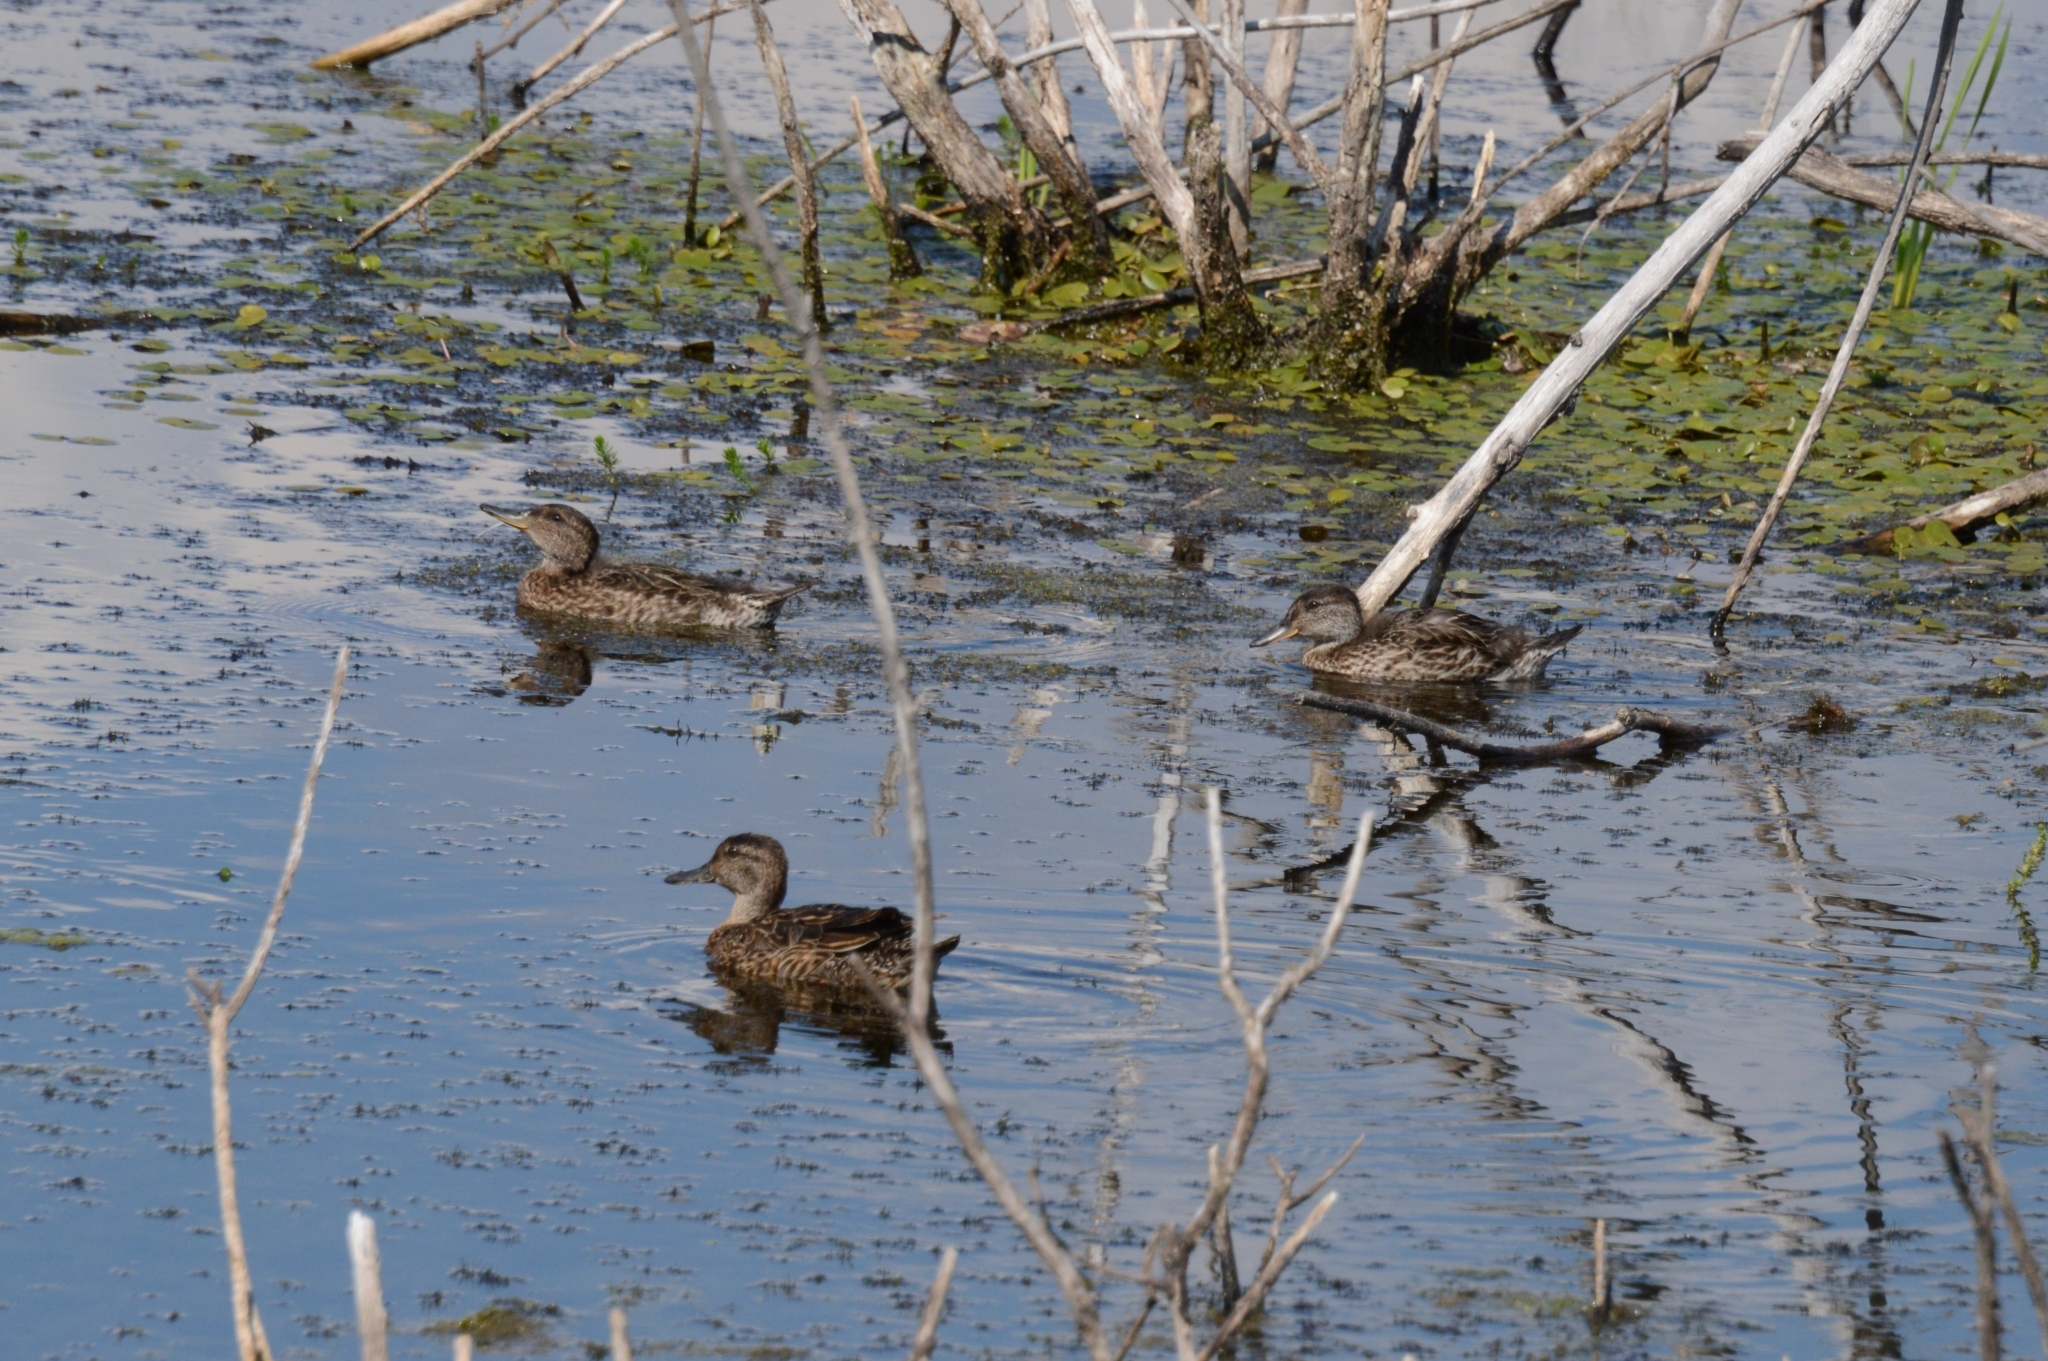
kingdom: Animalia
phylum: Chordata
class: Aves
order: Anseriformes
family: Anatidae
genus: Anas
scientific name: Anas platyrhynchos
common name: Mallard
